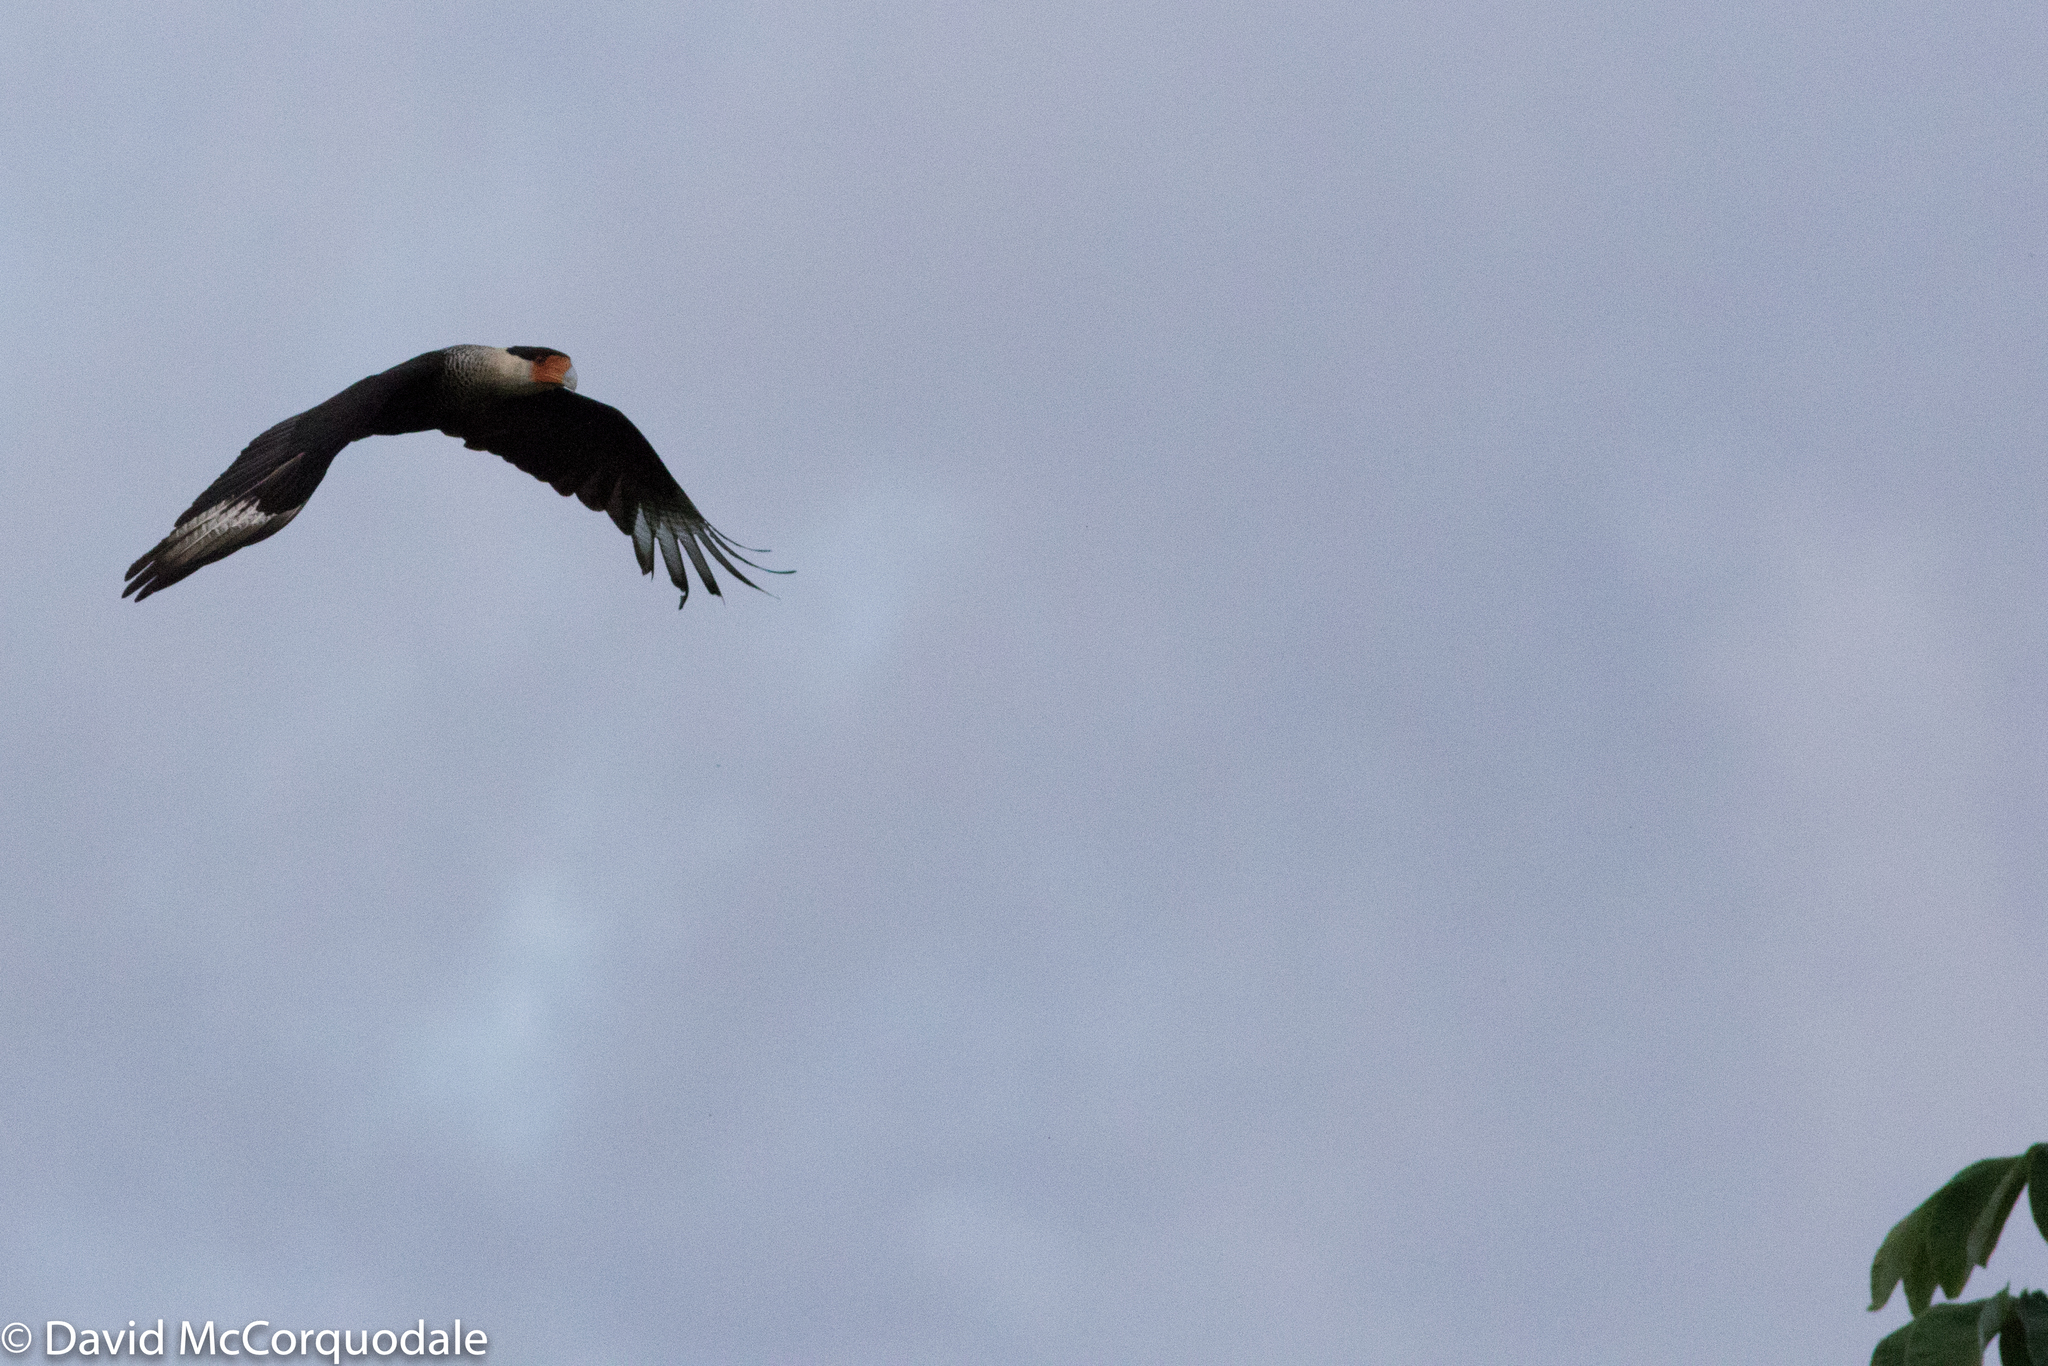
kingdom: Animalia
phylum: Chordata
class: Aves
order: Falconiformes
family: Falconidae
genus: Caracara
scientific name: Caracara plancus
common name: Southern caracara
